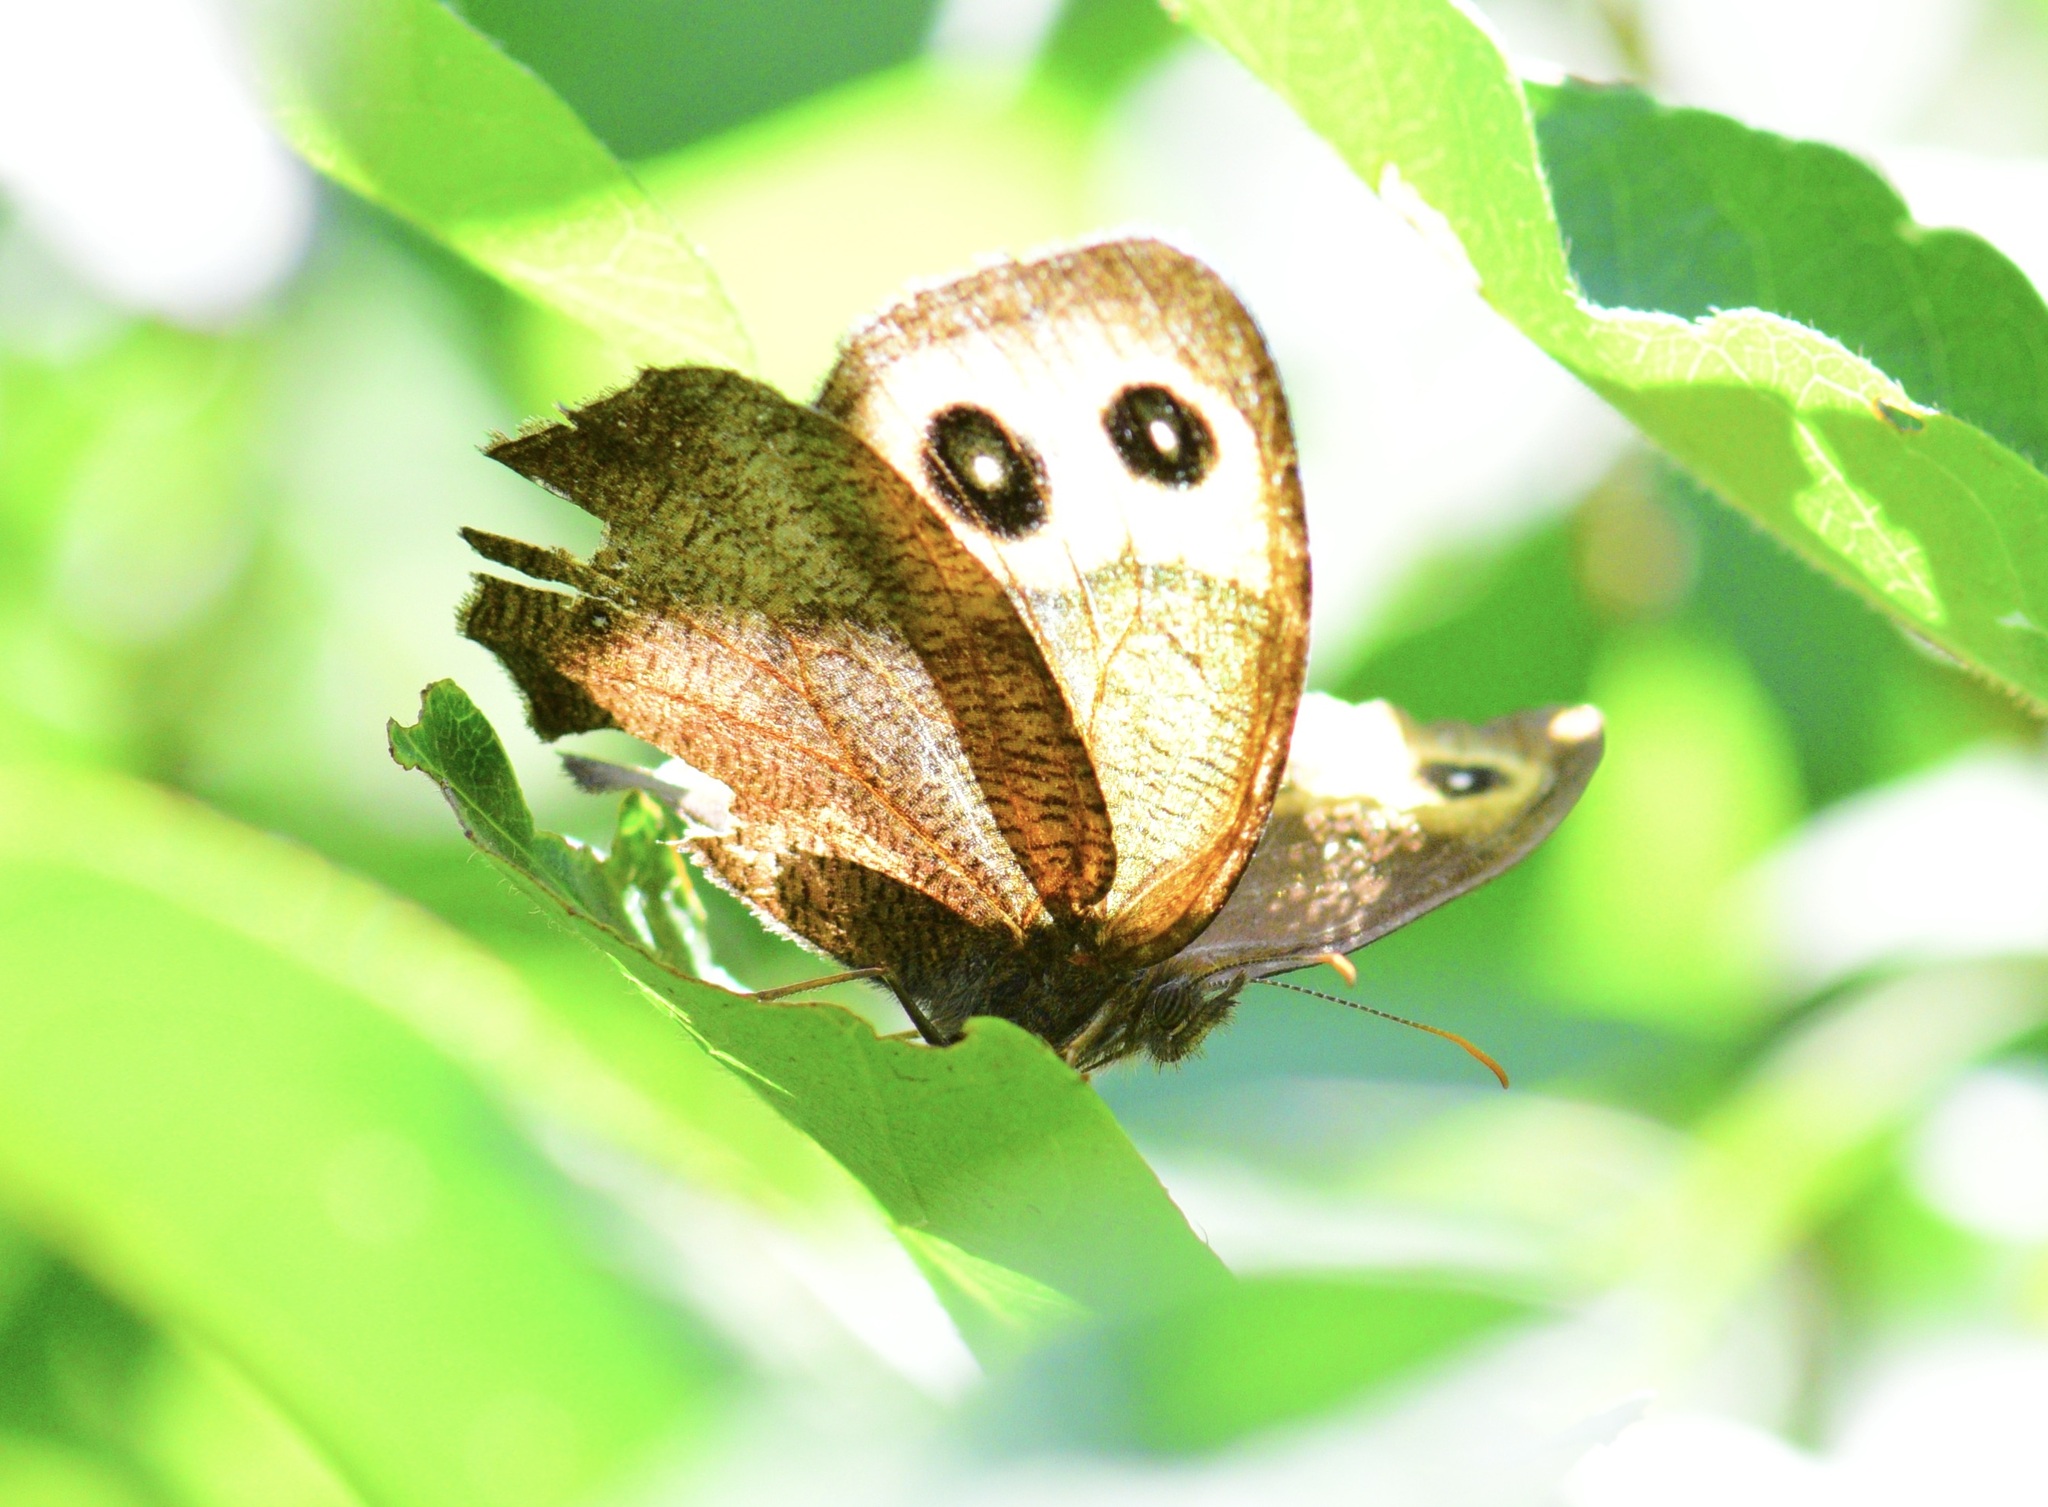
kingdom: Animalia
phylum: Arthropoda
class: Insecta
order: Lepidoptera
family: Nymphalidae
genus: Cercyonis
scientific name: Cercyonis pegala
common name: Common wood-nymph
